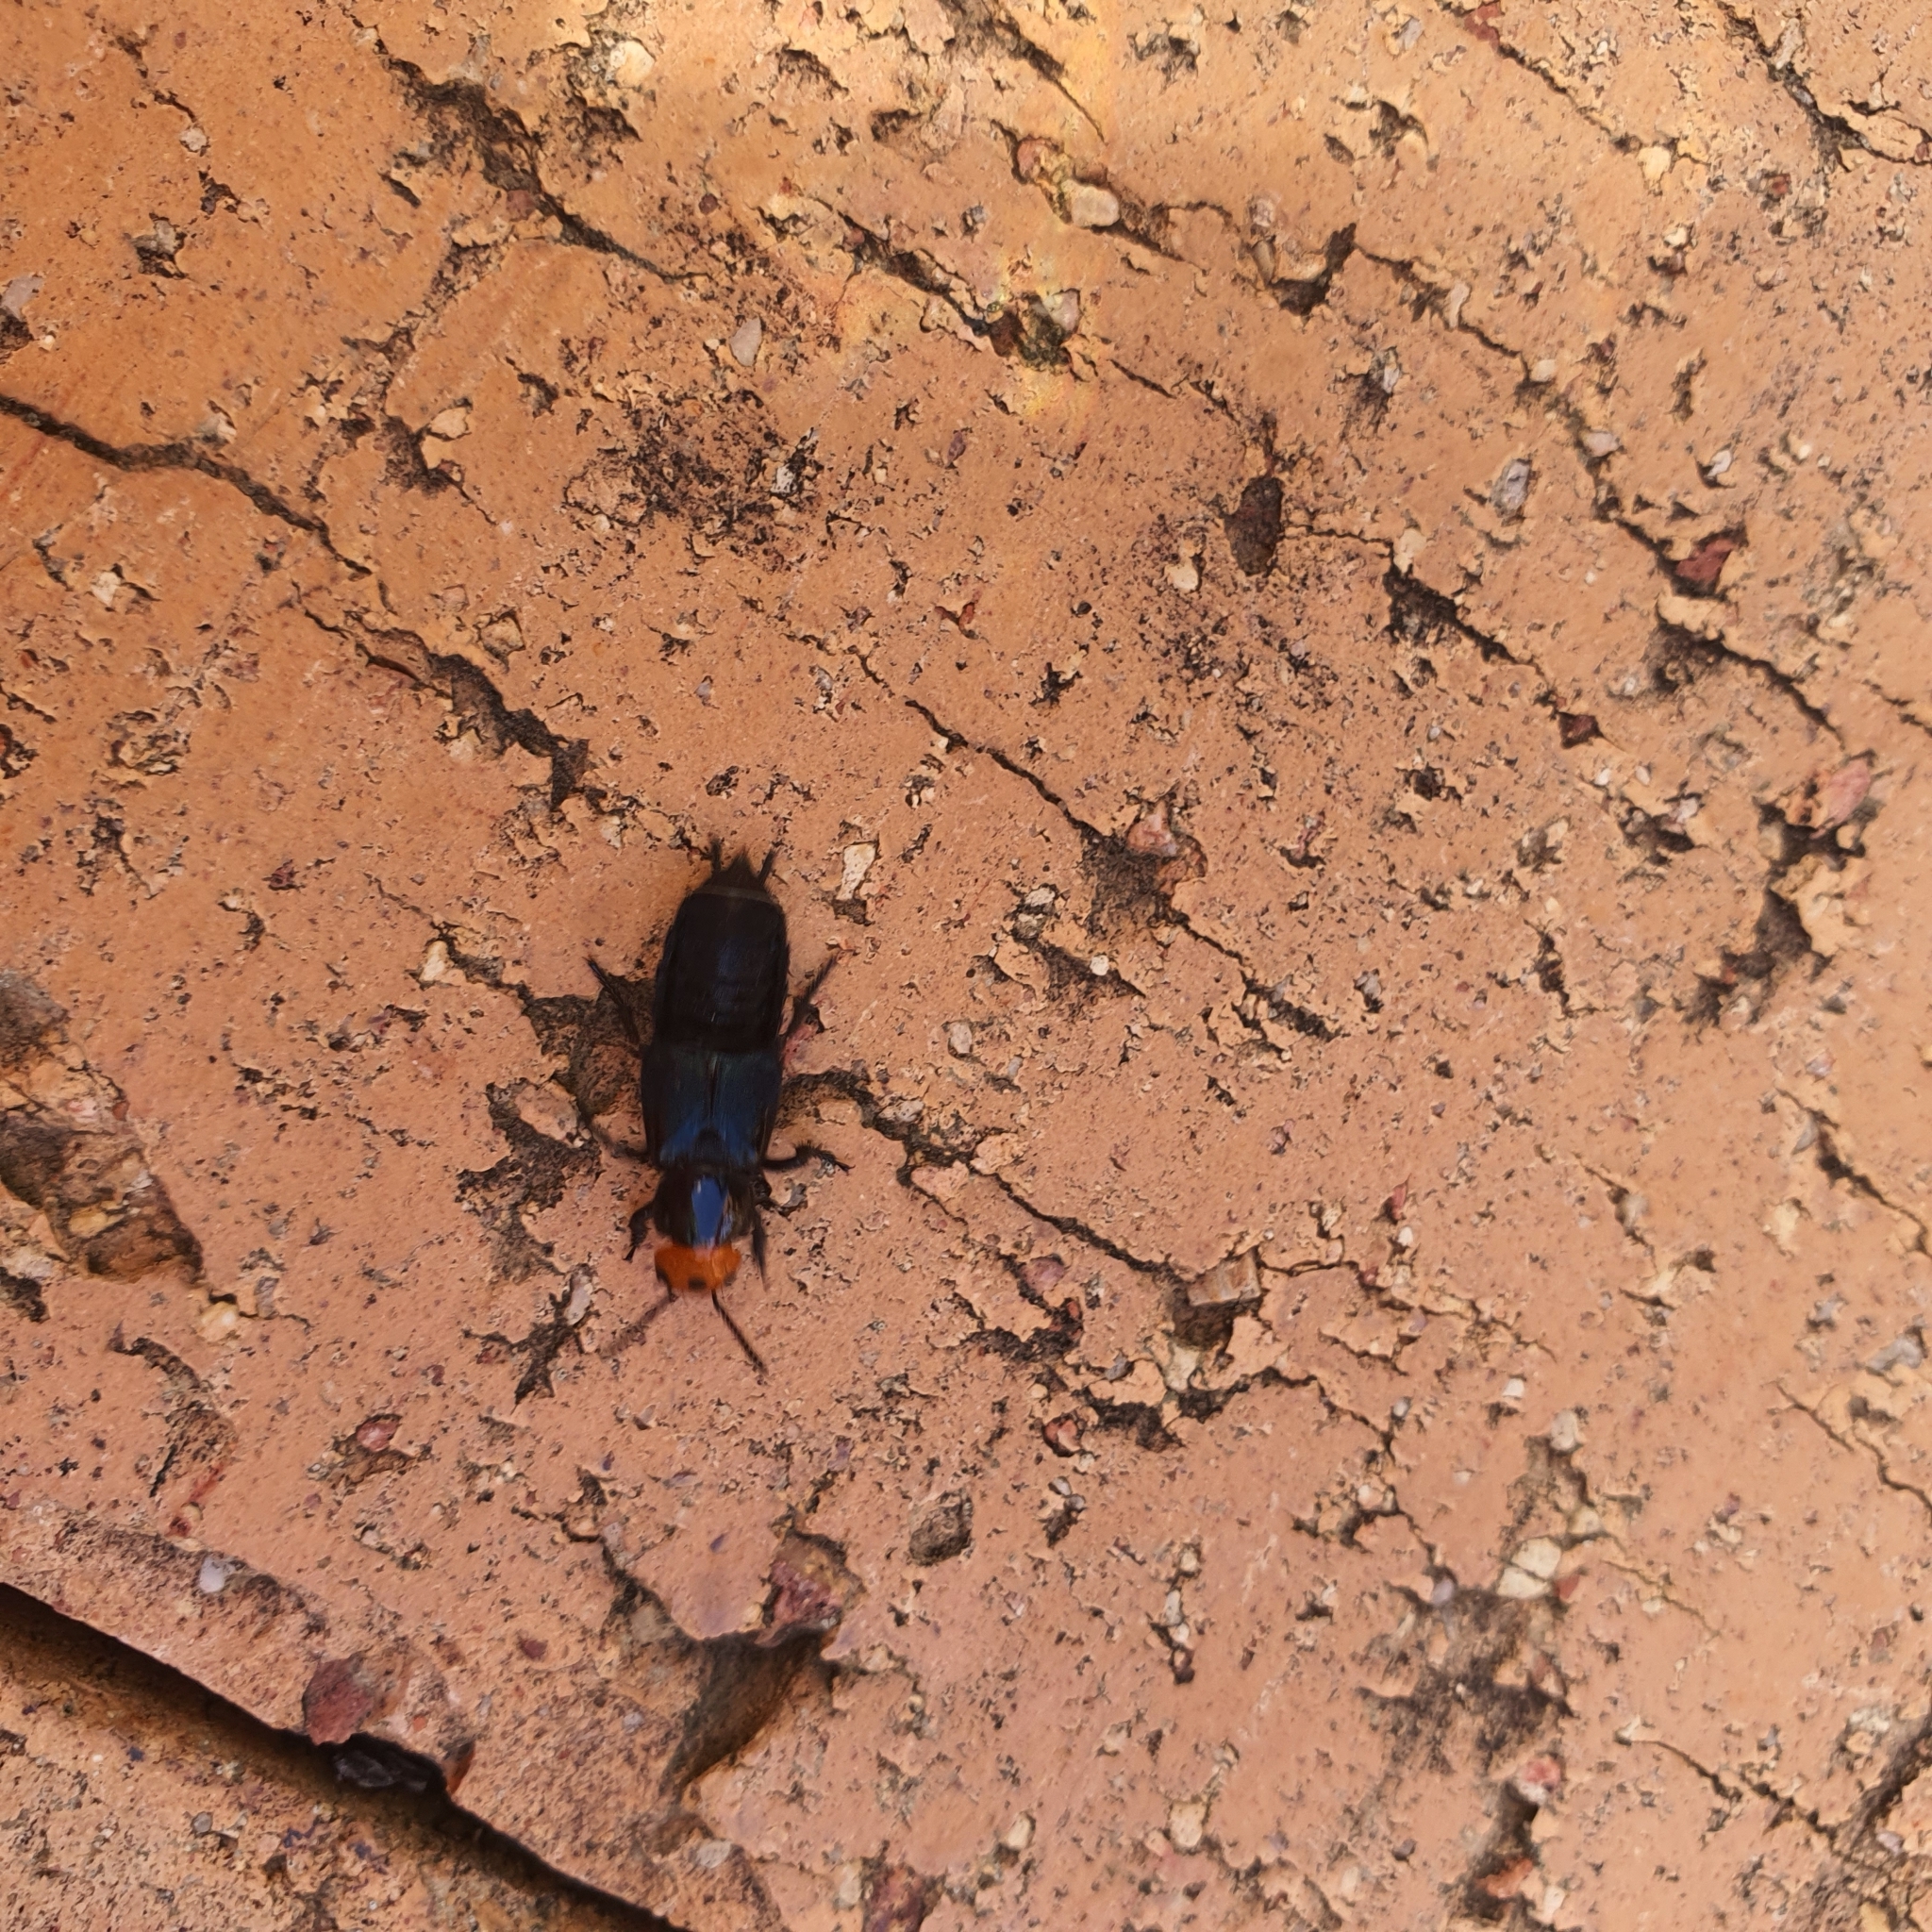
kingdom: Animalia
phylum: Arthropoda
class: Insecta
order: Coleoptera
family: Staphylinidae
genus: Creophilus
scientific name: Creophilus erythrocephalus
